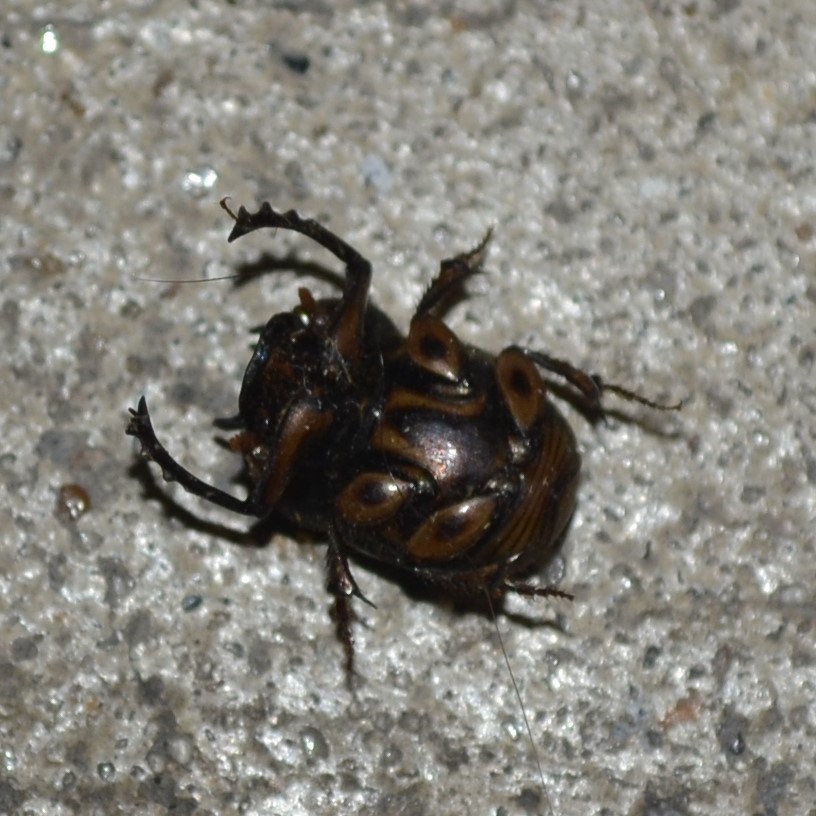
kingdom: Animalia
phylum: Arthropoda
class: Insecta
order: Coleoptera
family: Scarabaeidae
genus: Digitonthophagus
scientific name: Digitonthophagus gazella
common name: Brown dung beetle
